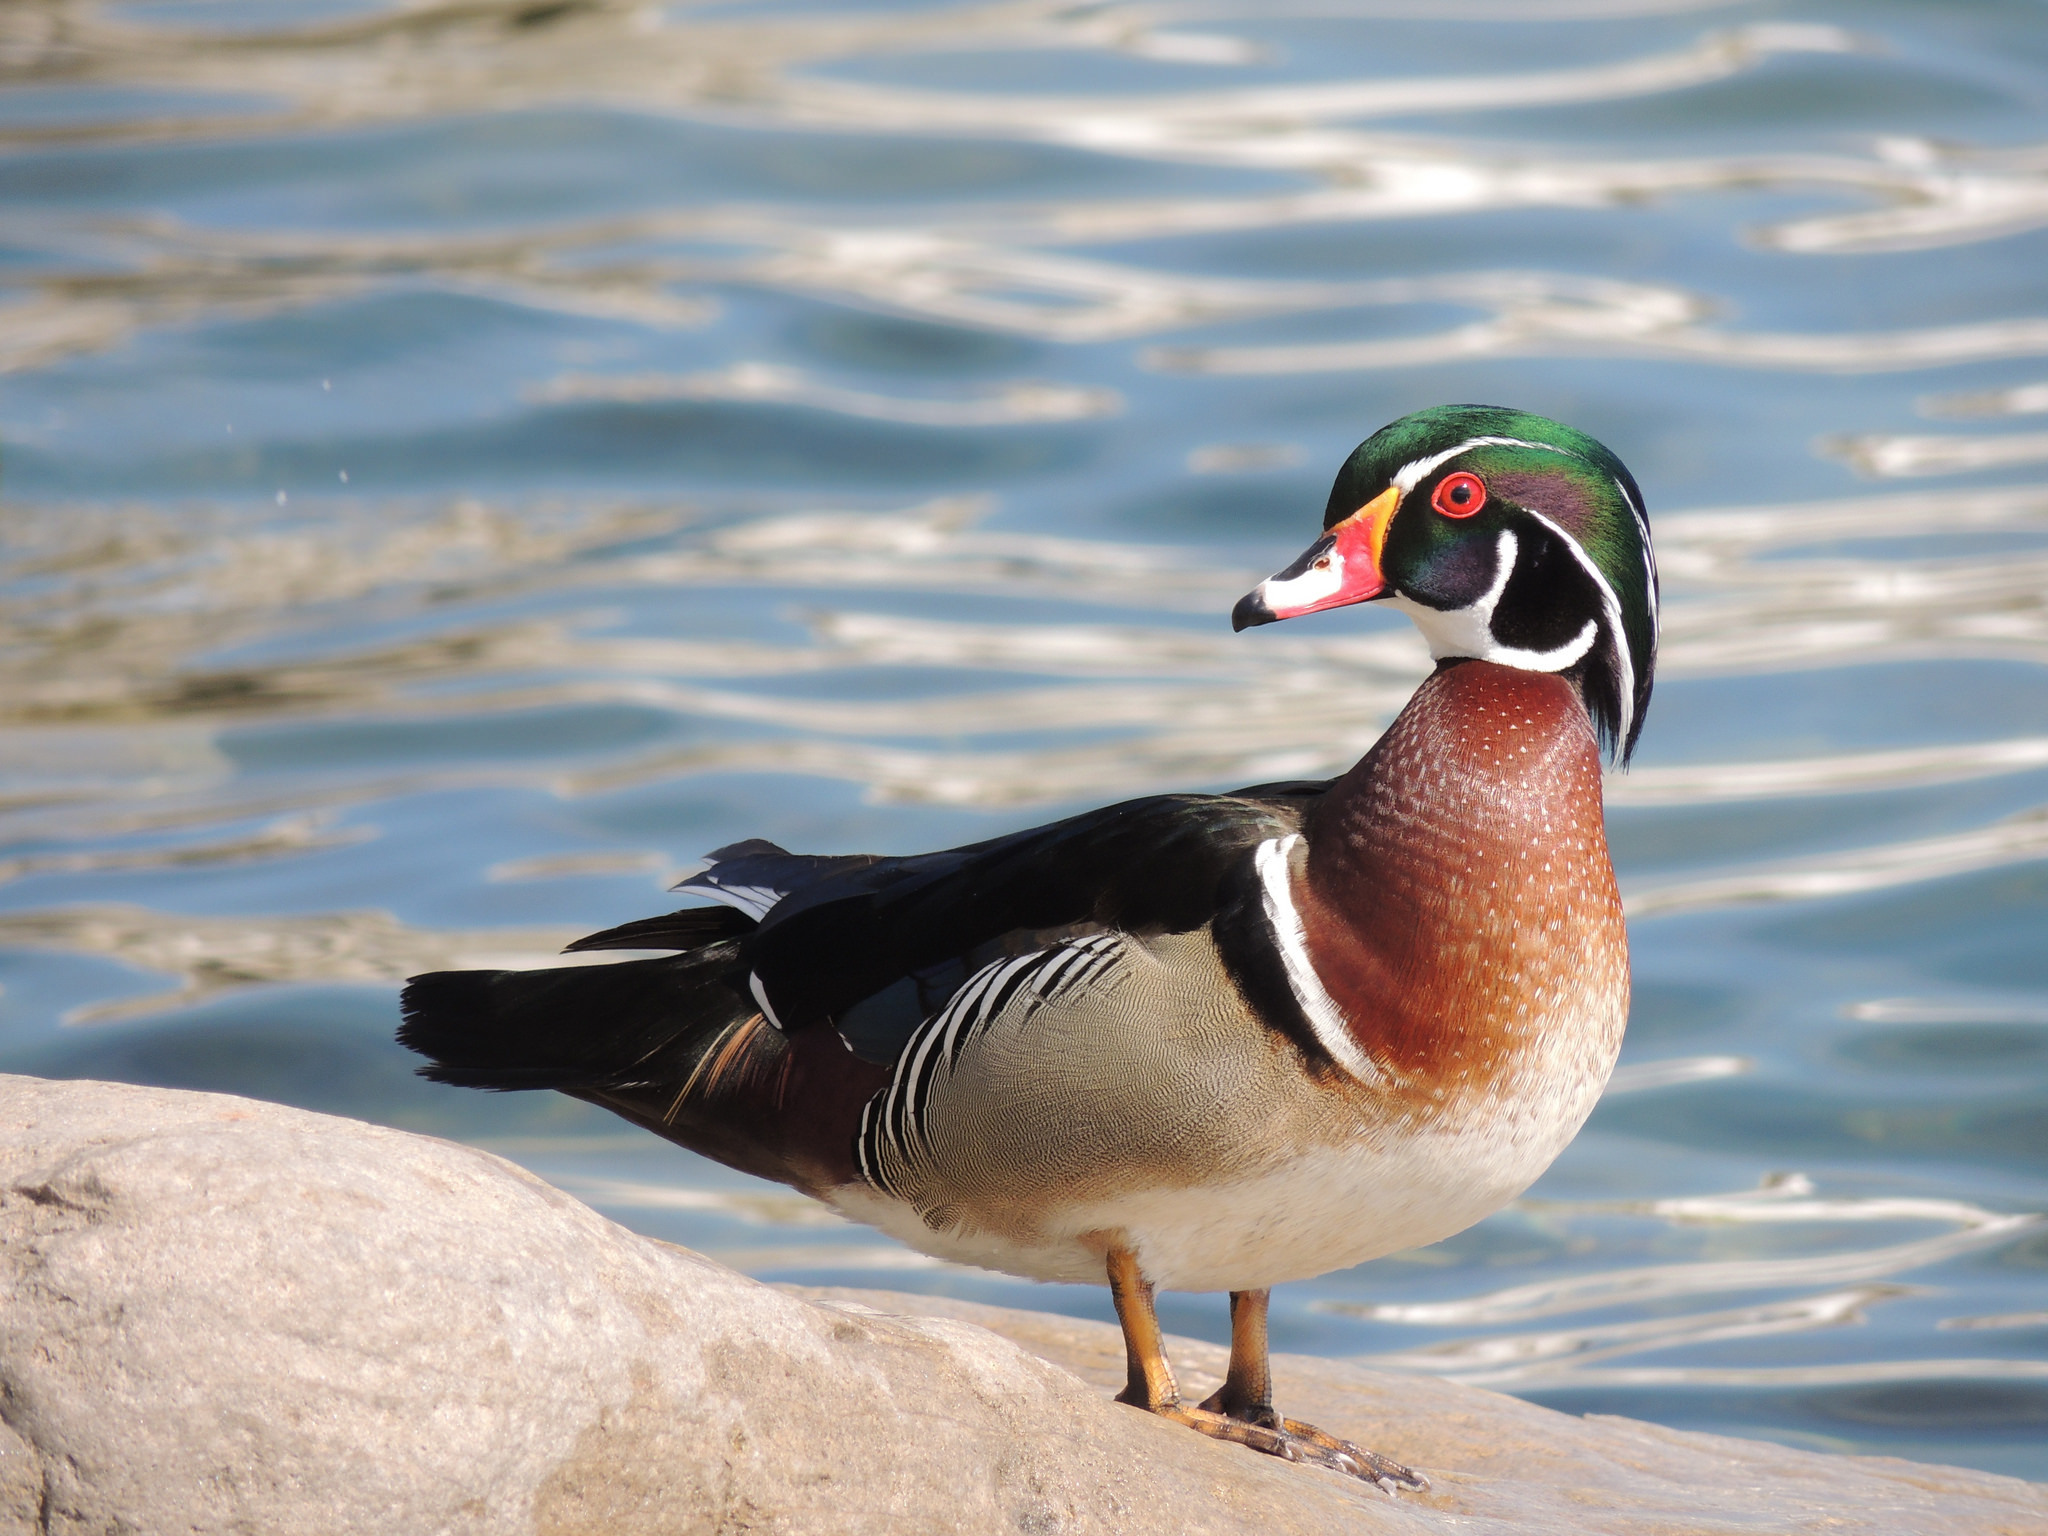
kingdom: Animalia
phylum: Chordata
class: Aves
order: Anseriformes
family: Anatidae
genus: Aix
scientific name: Aix sponsa
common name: Wood duck
